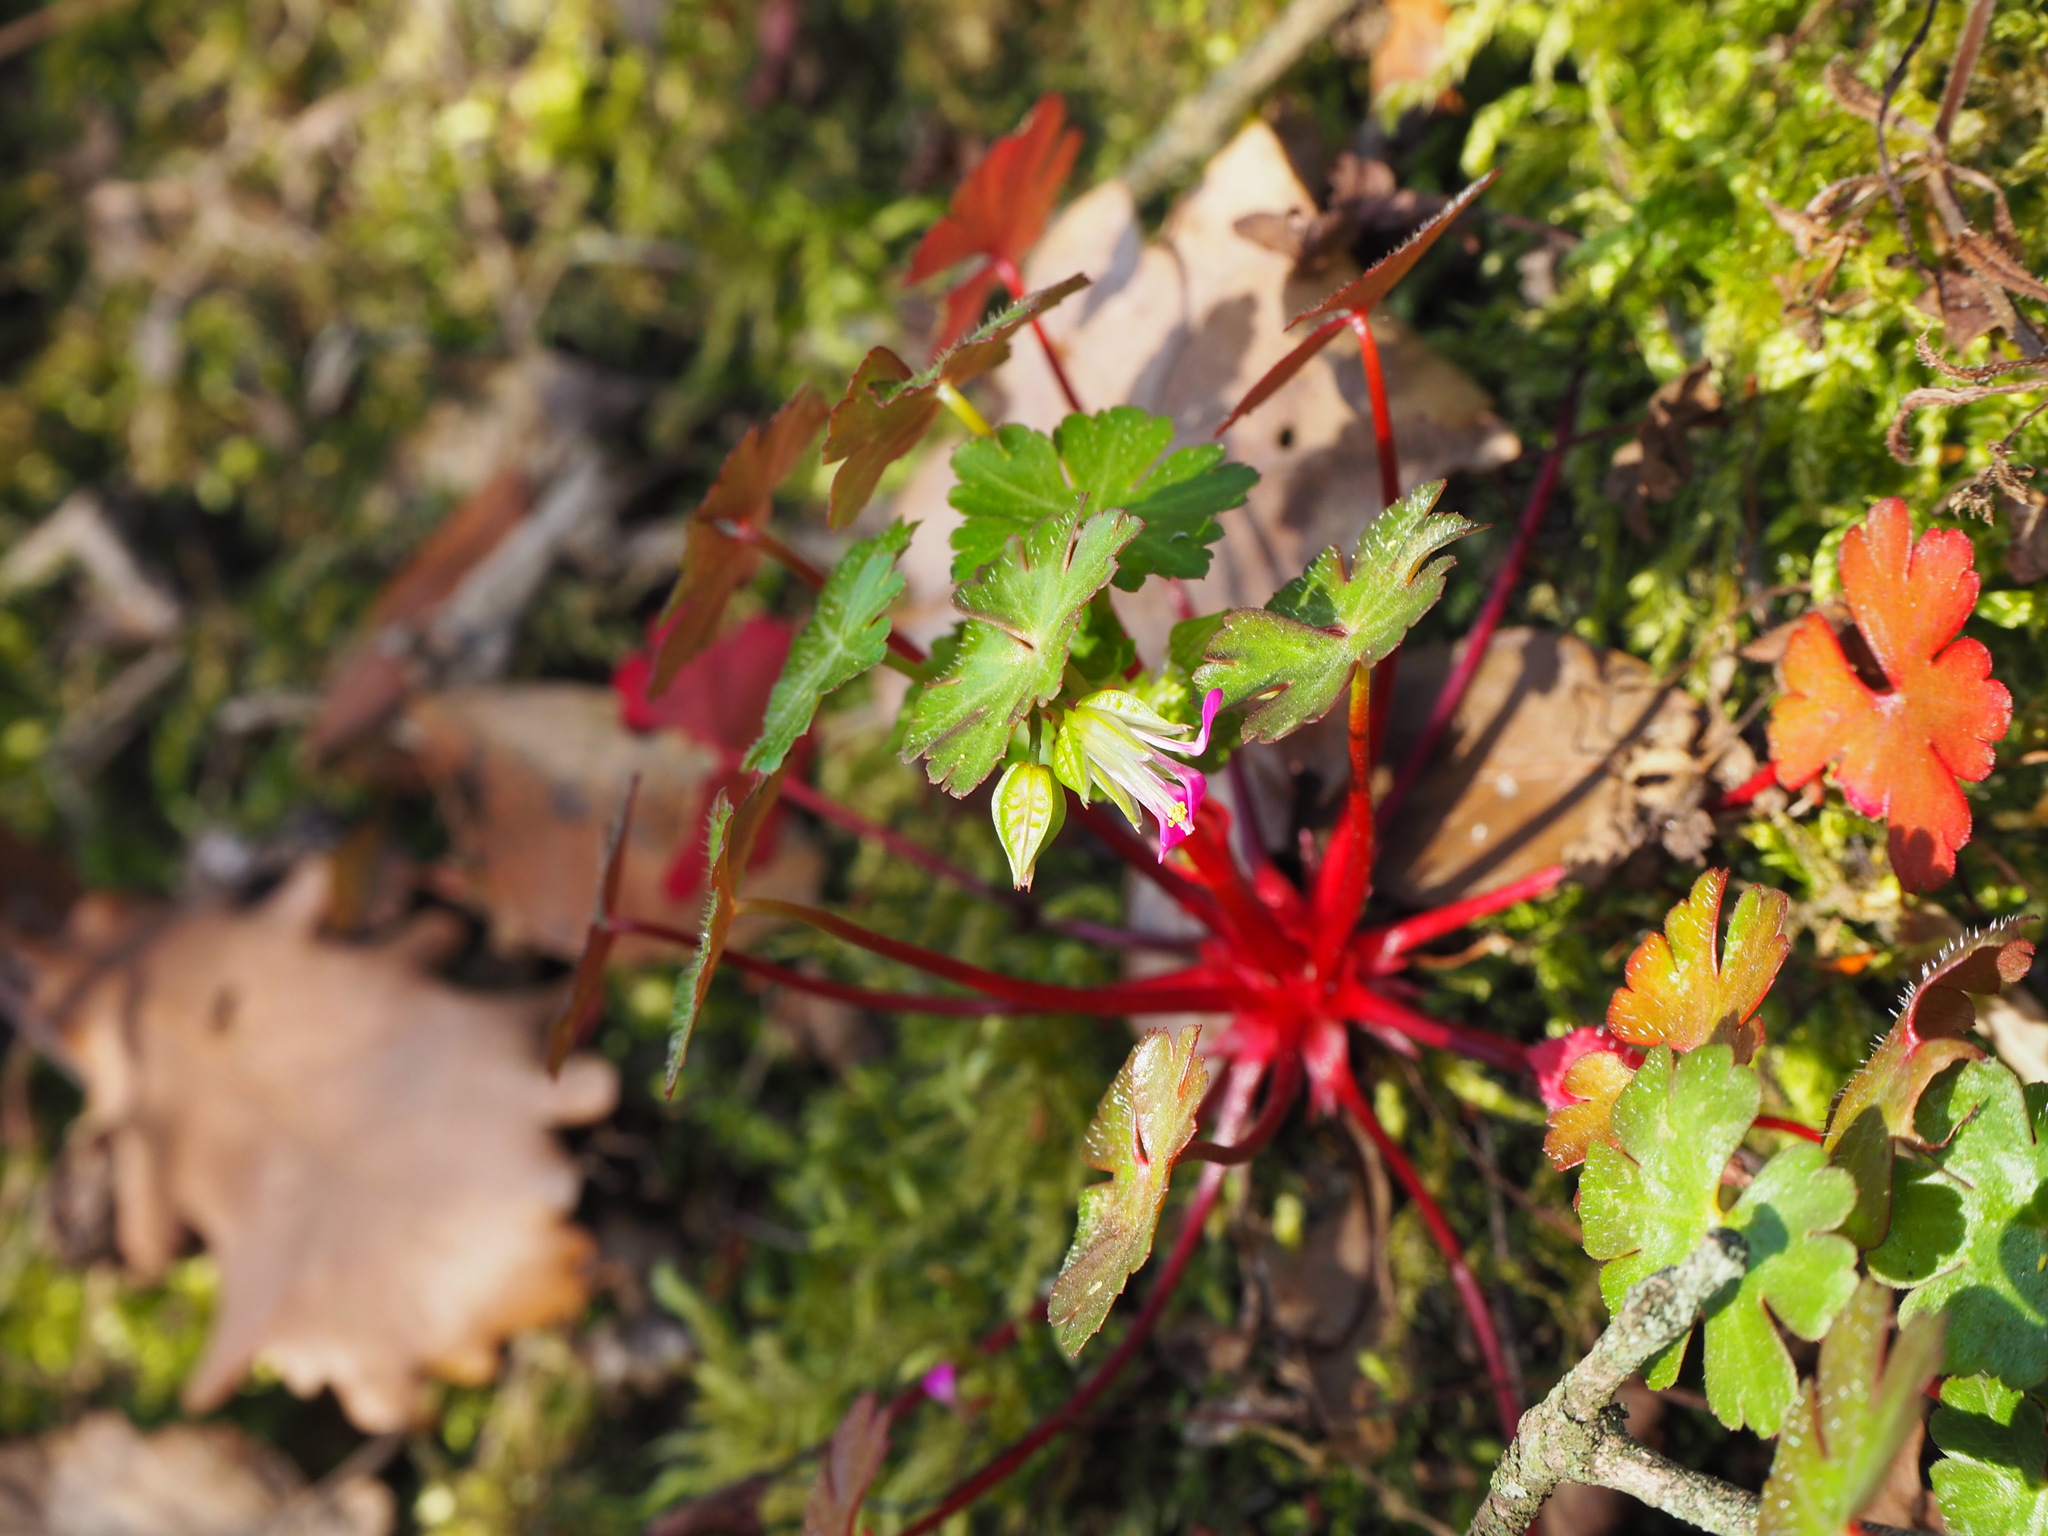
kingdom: Plantae
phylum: Tracheophyta
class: Magnoliopsida
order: Geraniales
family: Geraniaceae
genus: Geranium
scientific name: Geranium lucidum
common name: Shining crane's-bill
